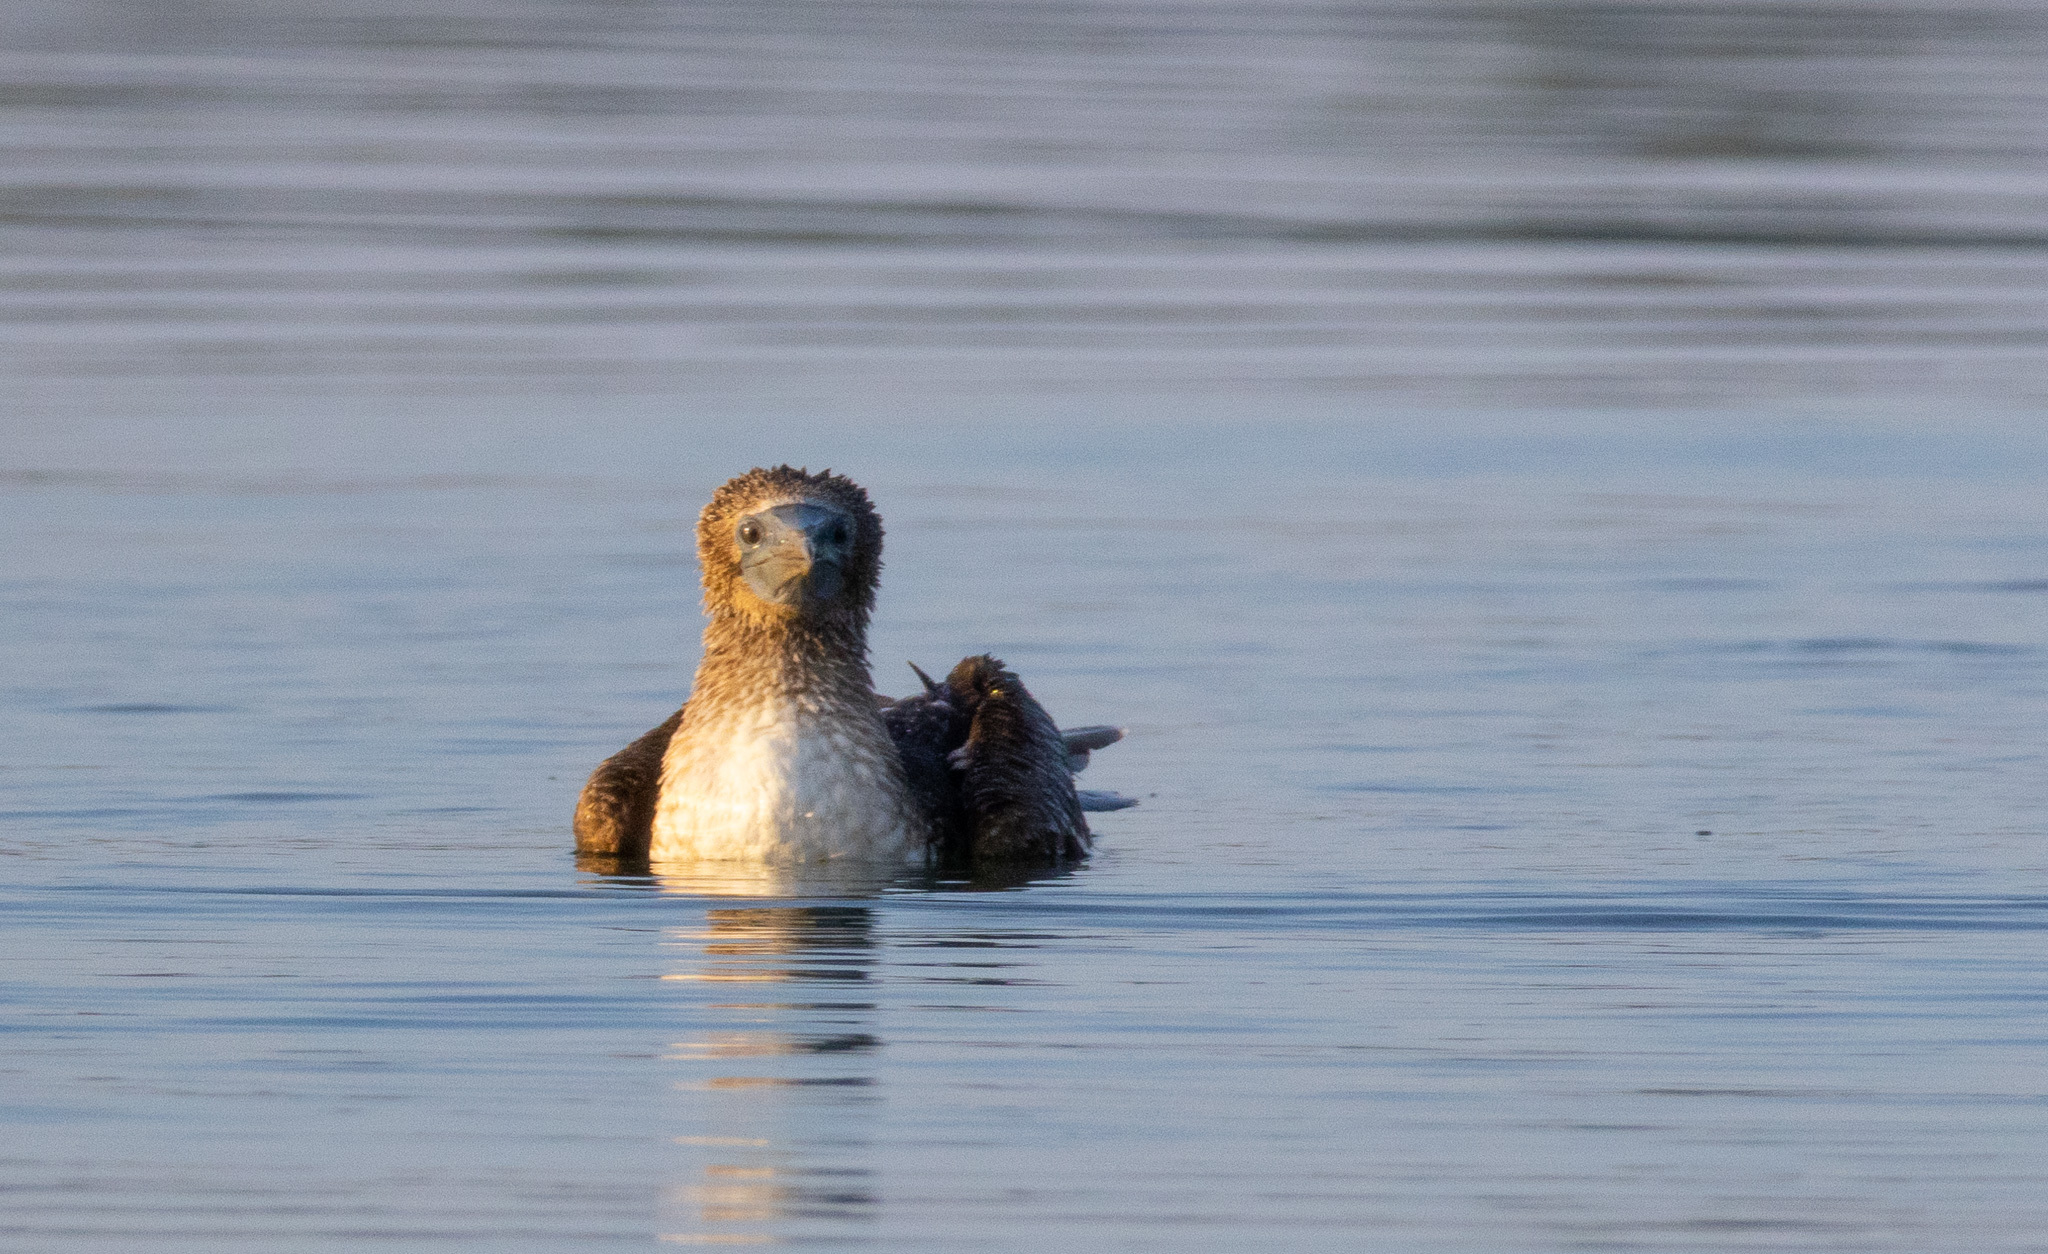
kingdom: Animalia
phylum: Chordata
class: Aves
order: Suliformes
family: Sulidae
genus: Sula
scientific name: Sula nebouxii
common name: Blue-footed booby
